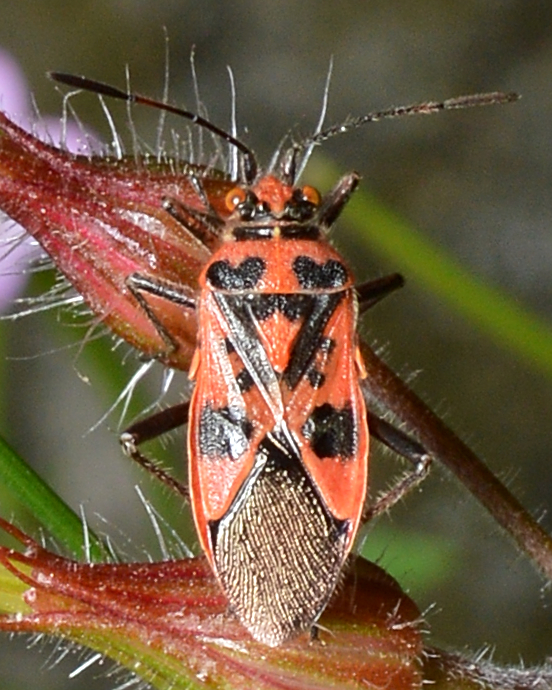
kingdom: Animalia
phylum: Arthropoda
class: Insecta
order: Hemiptera
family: Rhopalidae
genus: Corizus
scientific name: Corizus hyoscyami
